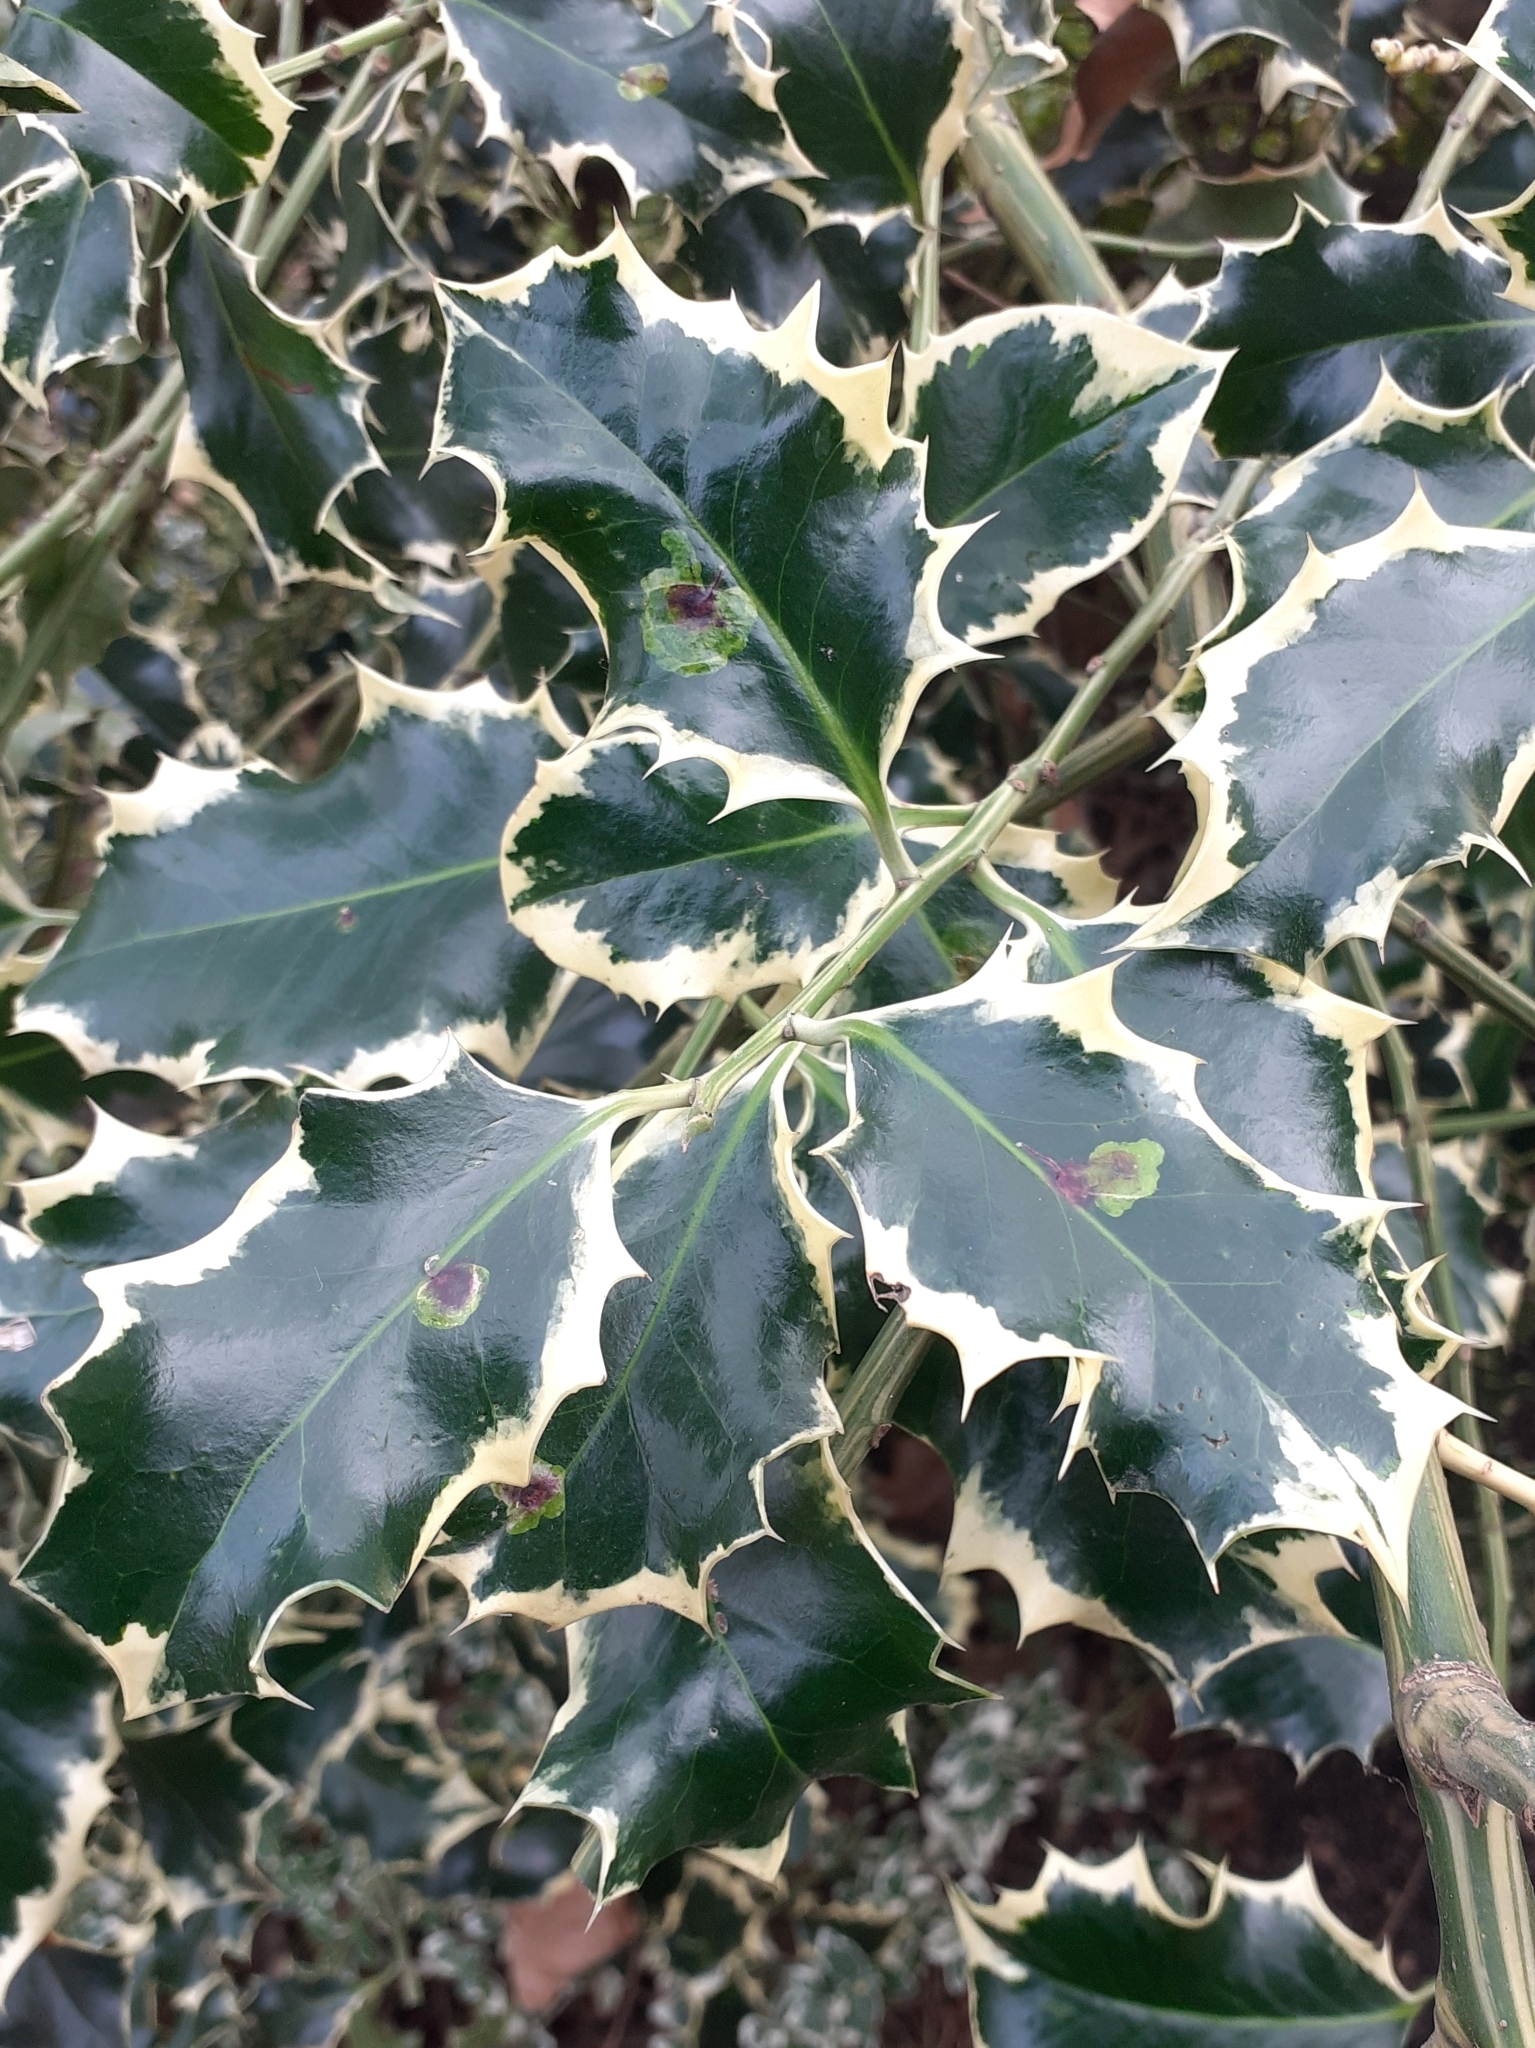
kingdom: Plantae
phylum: Tracheophyta
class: Magnoliopsida
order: Aquifoliales
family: Aquifoliaceae
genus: Ilex
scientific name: Ilex aquifolium
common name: English holly
